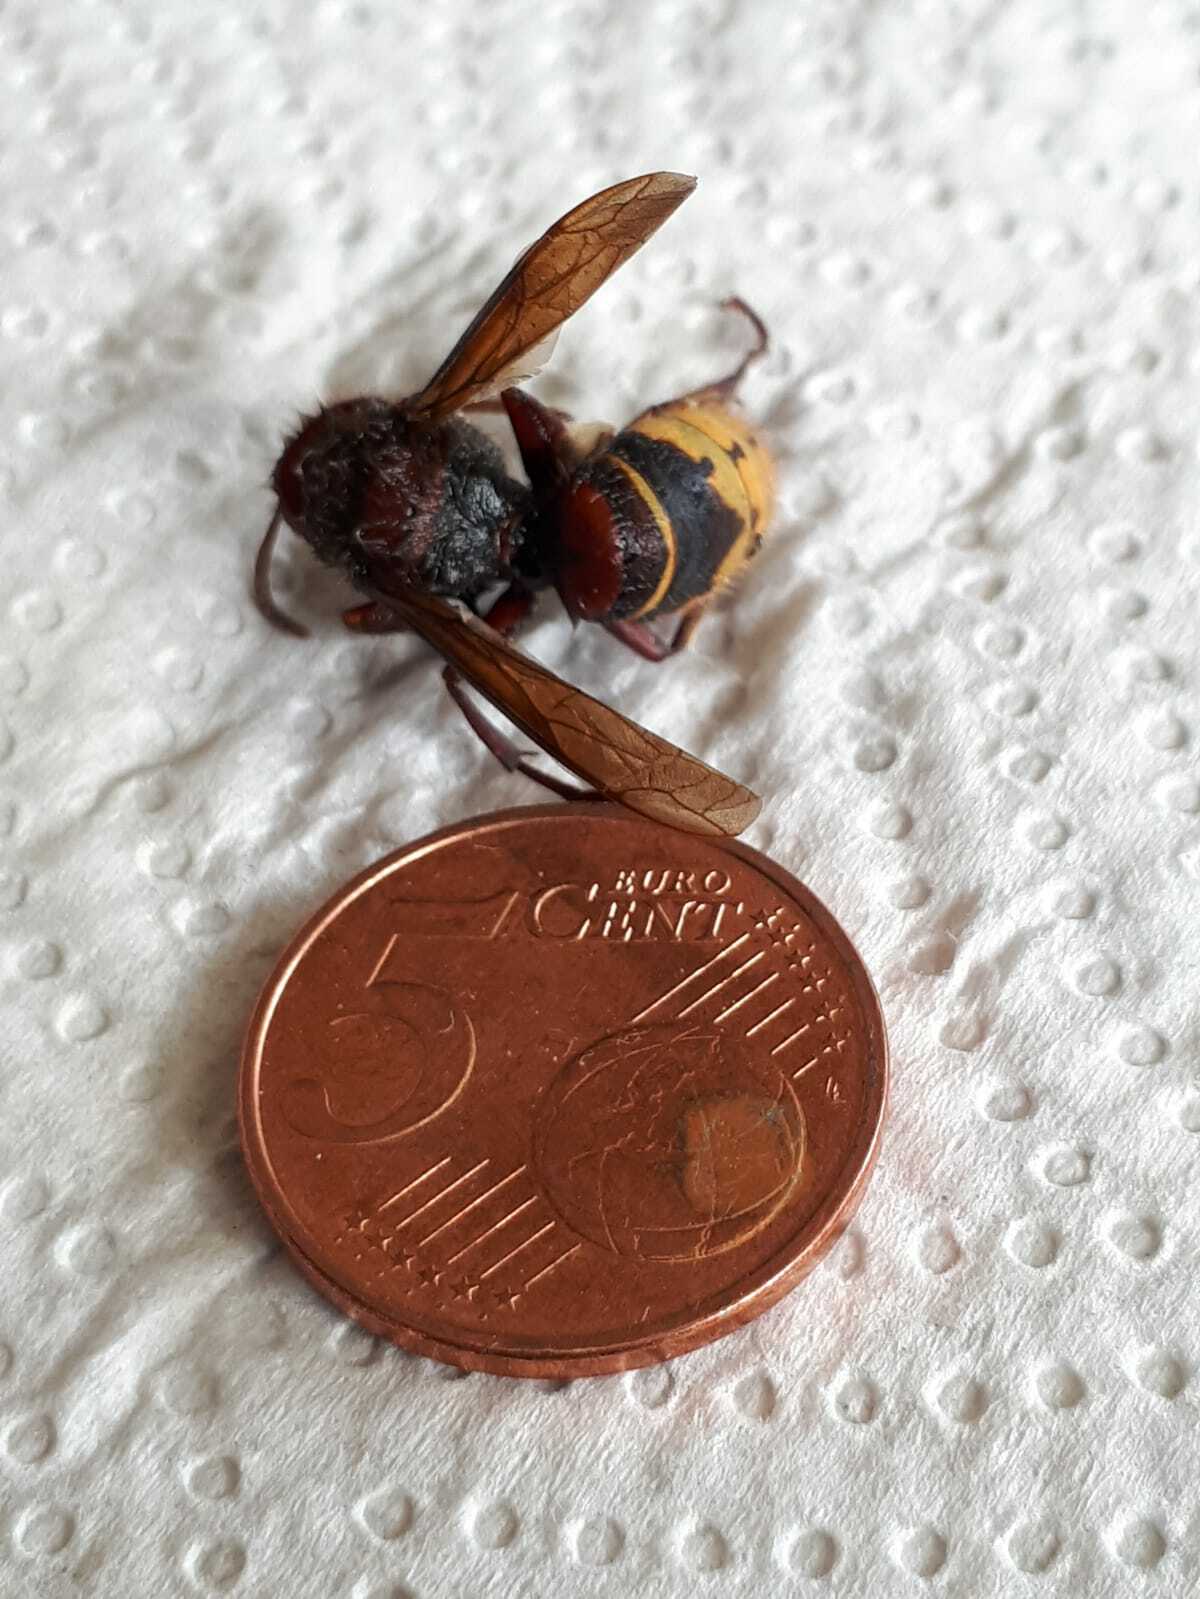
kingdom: Animalia
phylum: Arthropoda
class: Insecta
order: Hymenoptera
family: Vespidae
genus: Vespa
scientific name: Vespa crabro
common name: Hornet
